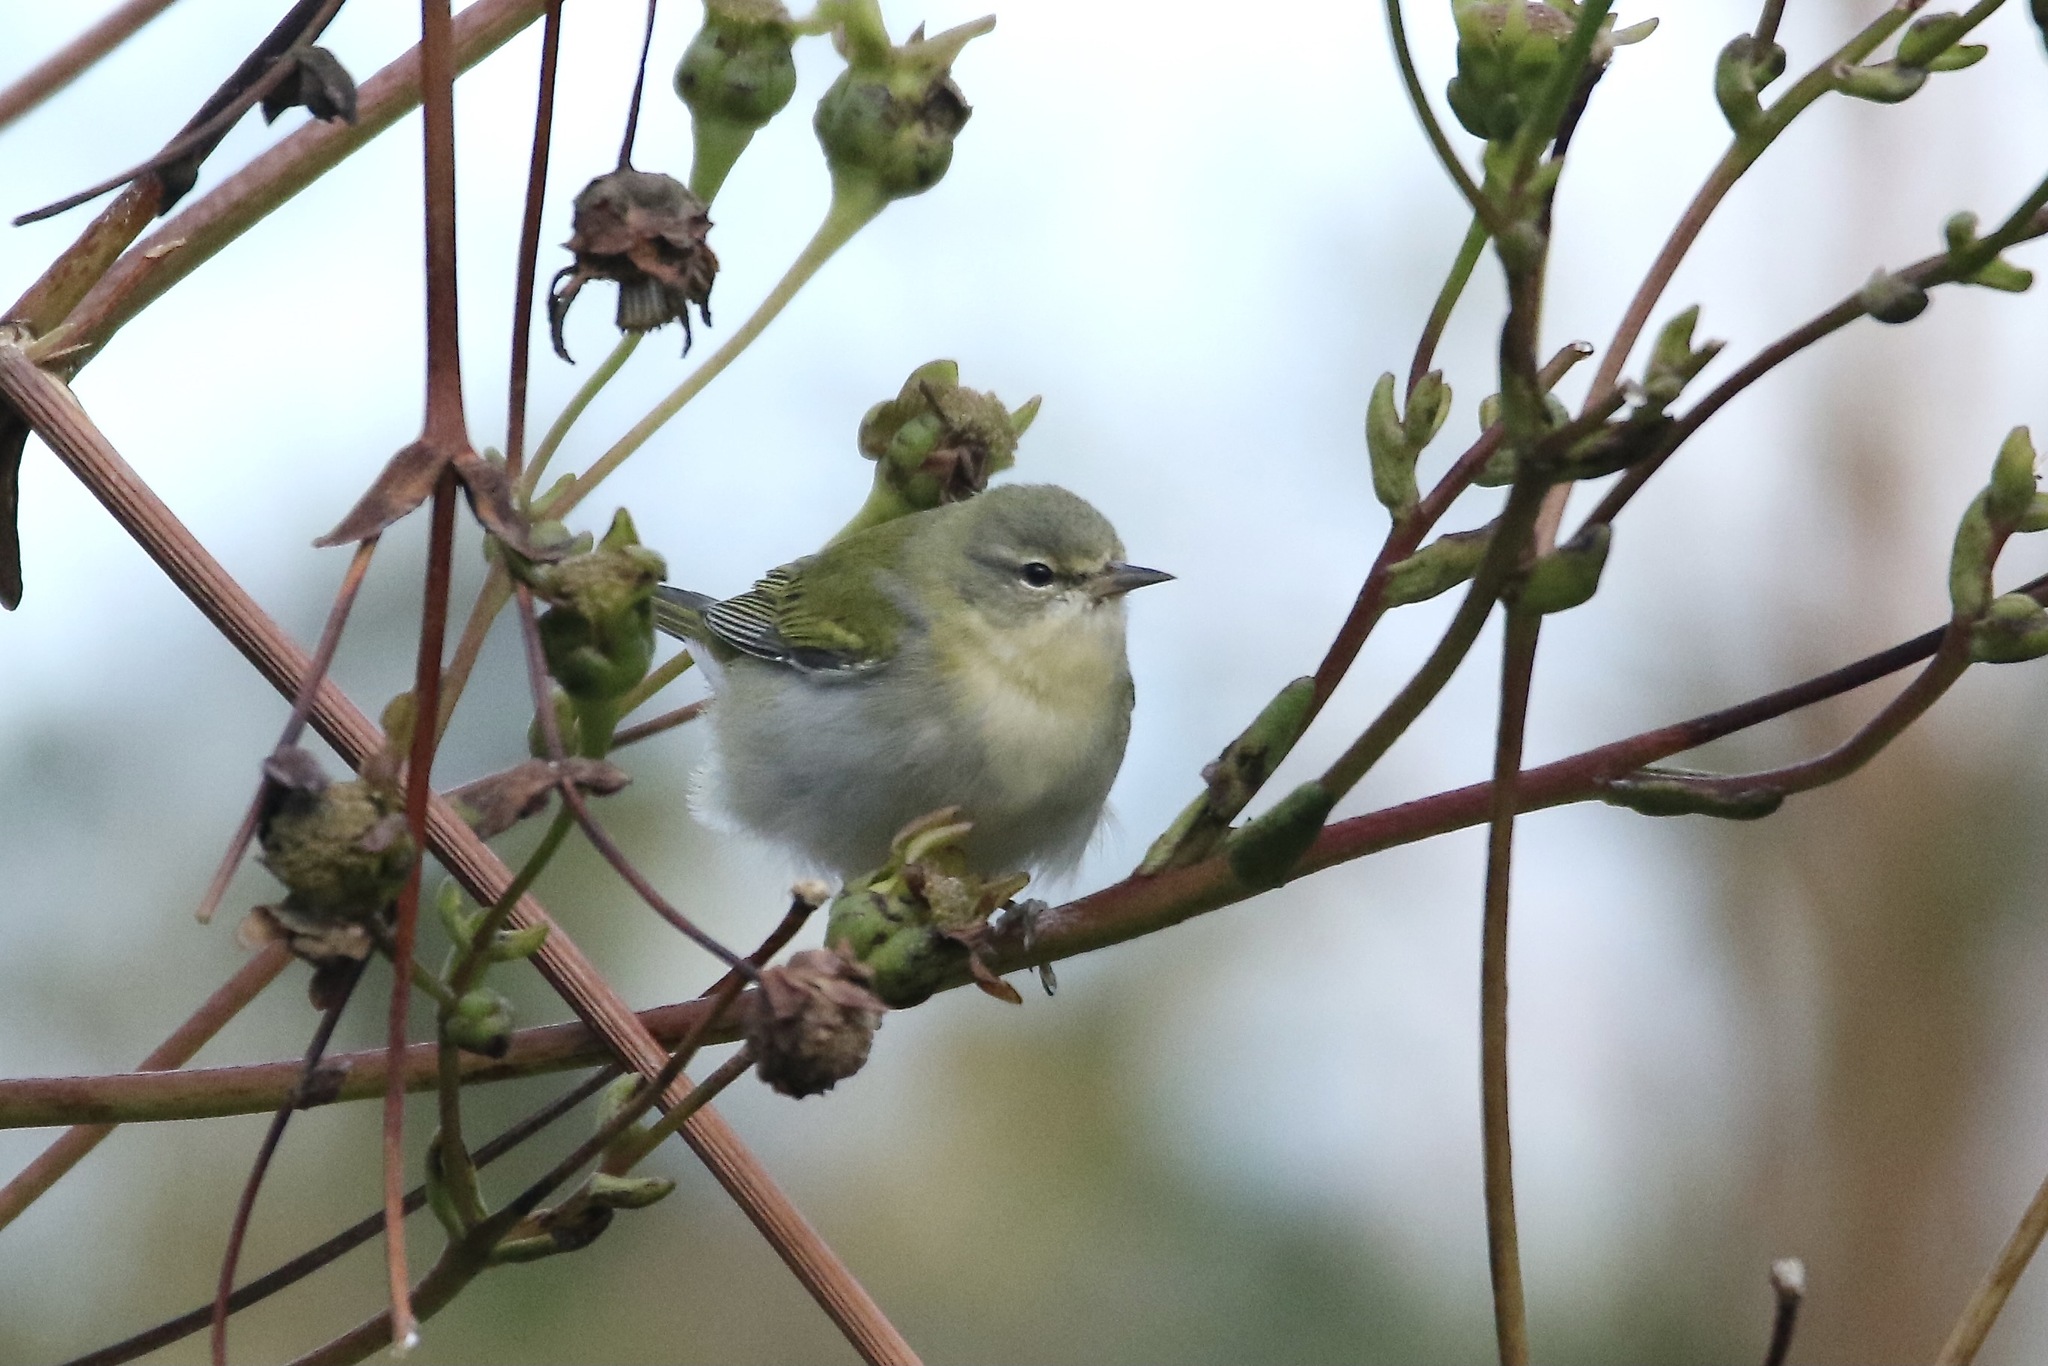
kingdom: Animalia
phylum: Chordata
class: Aves
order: Passeriformes
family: Parulidae
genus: Leiothlypis
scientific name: Leiothlypis peregrina
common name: Tennessee warbler
